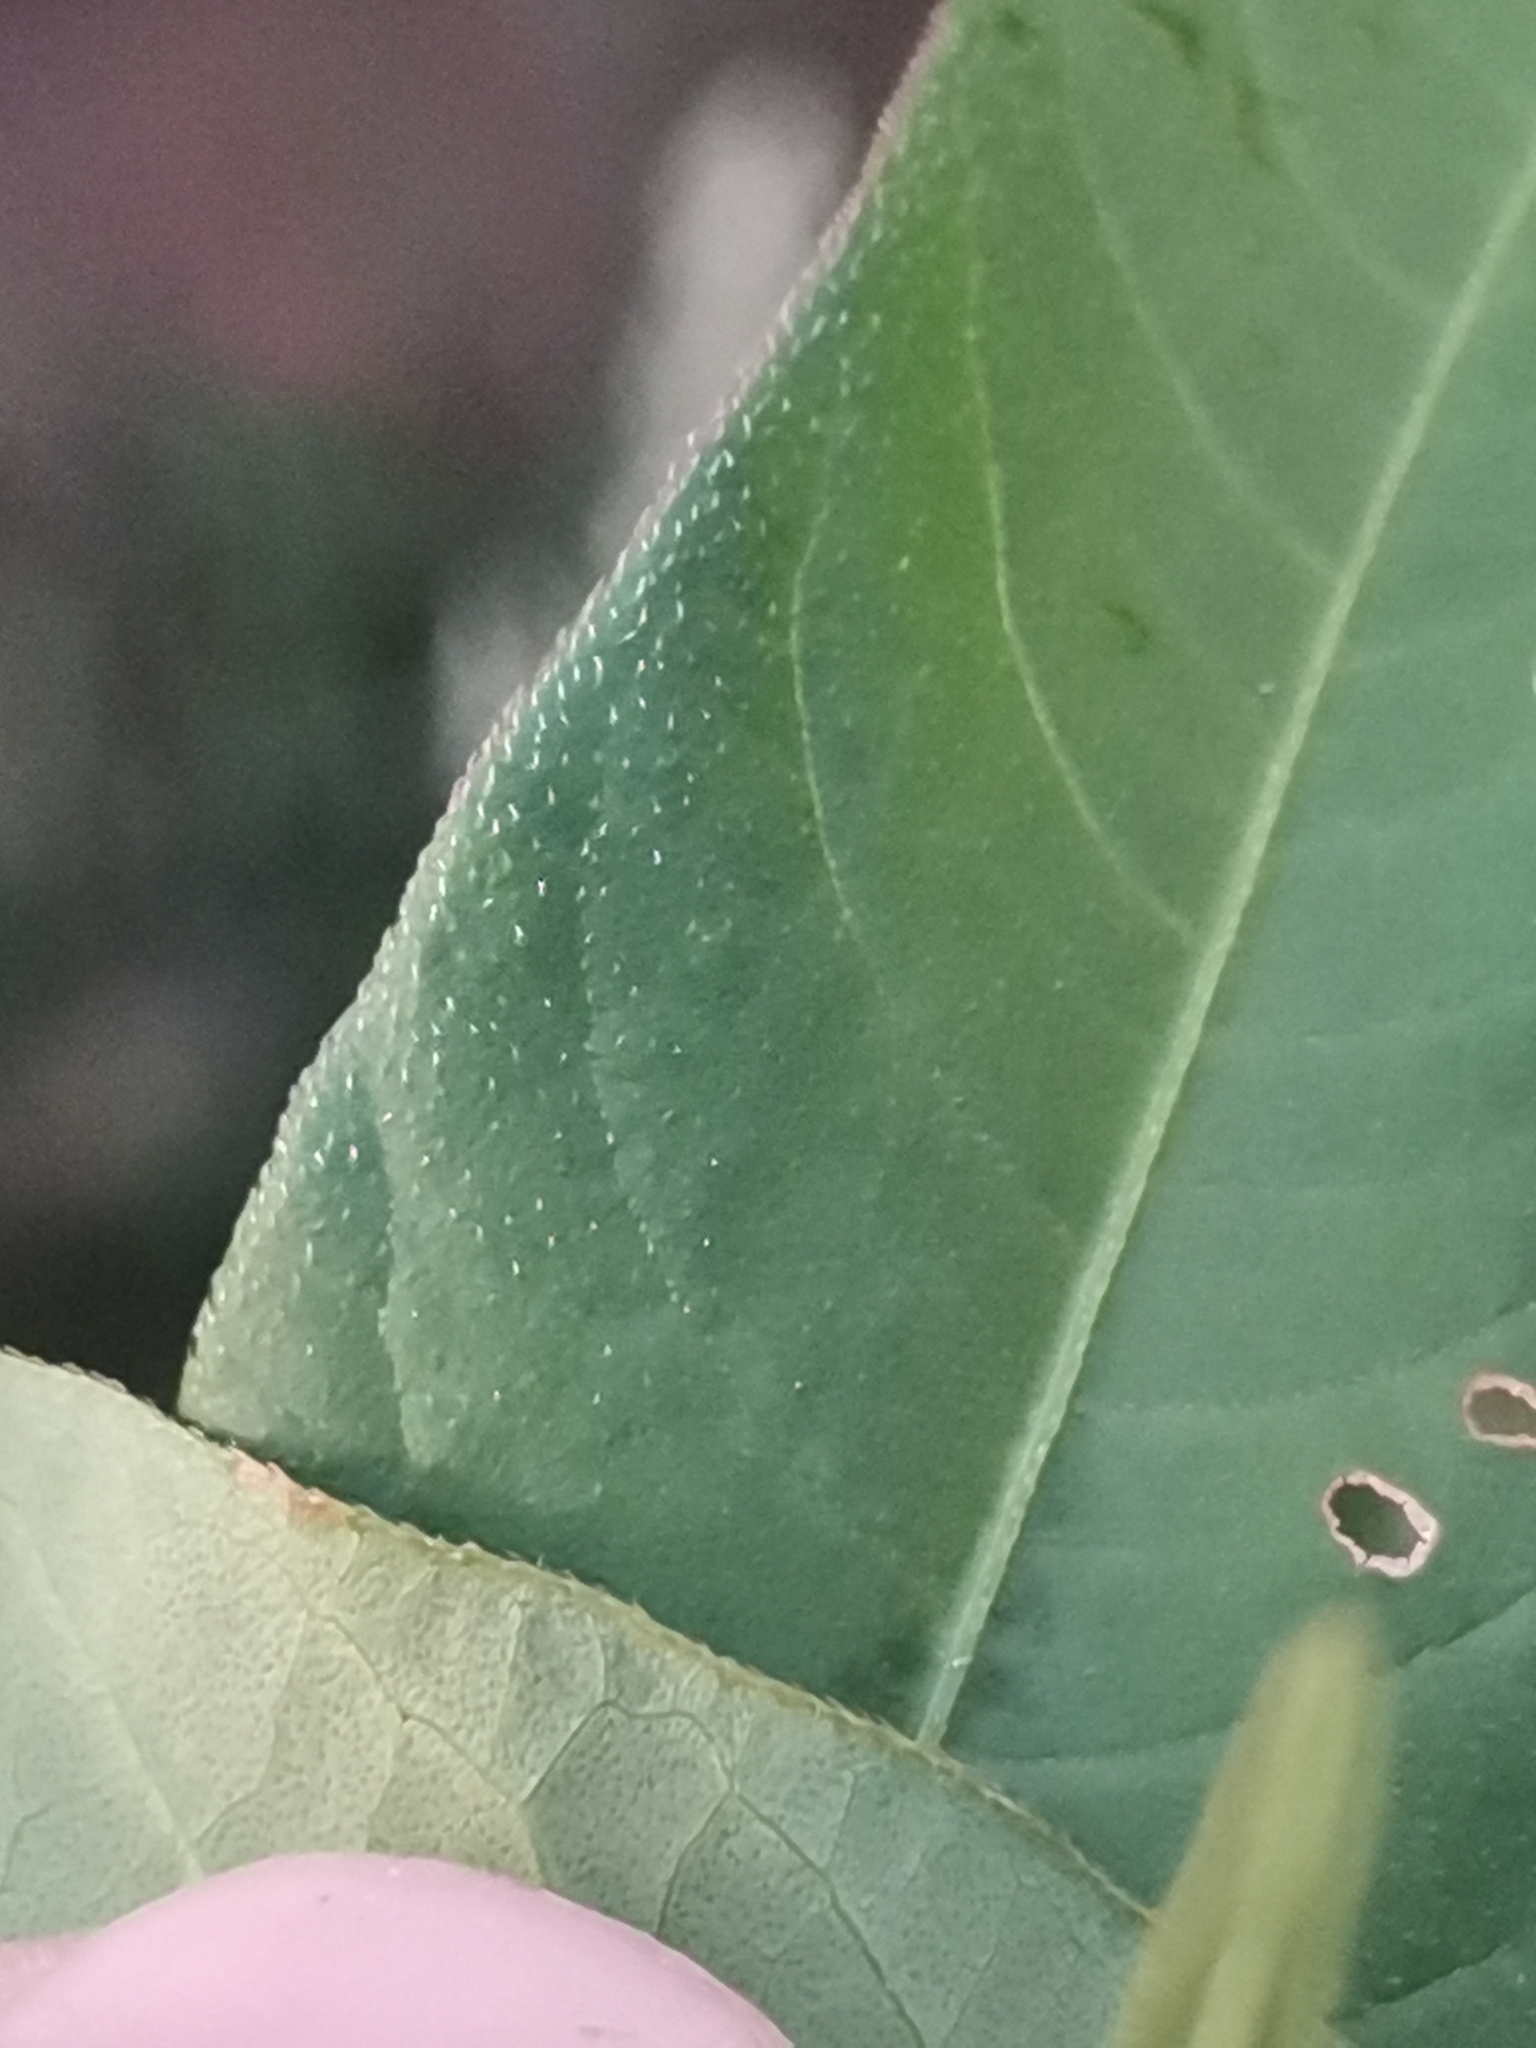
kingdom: Plantae
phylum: Tracheophyta
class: Magnoliopsida
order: Caryophyllales
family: Polygonaceae
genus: Persicaria
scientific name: Persicaria lapathifolia
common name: Curlytop knotweed
